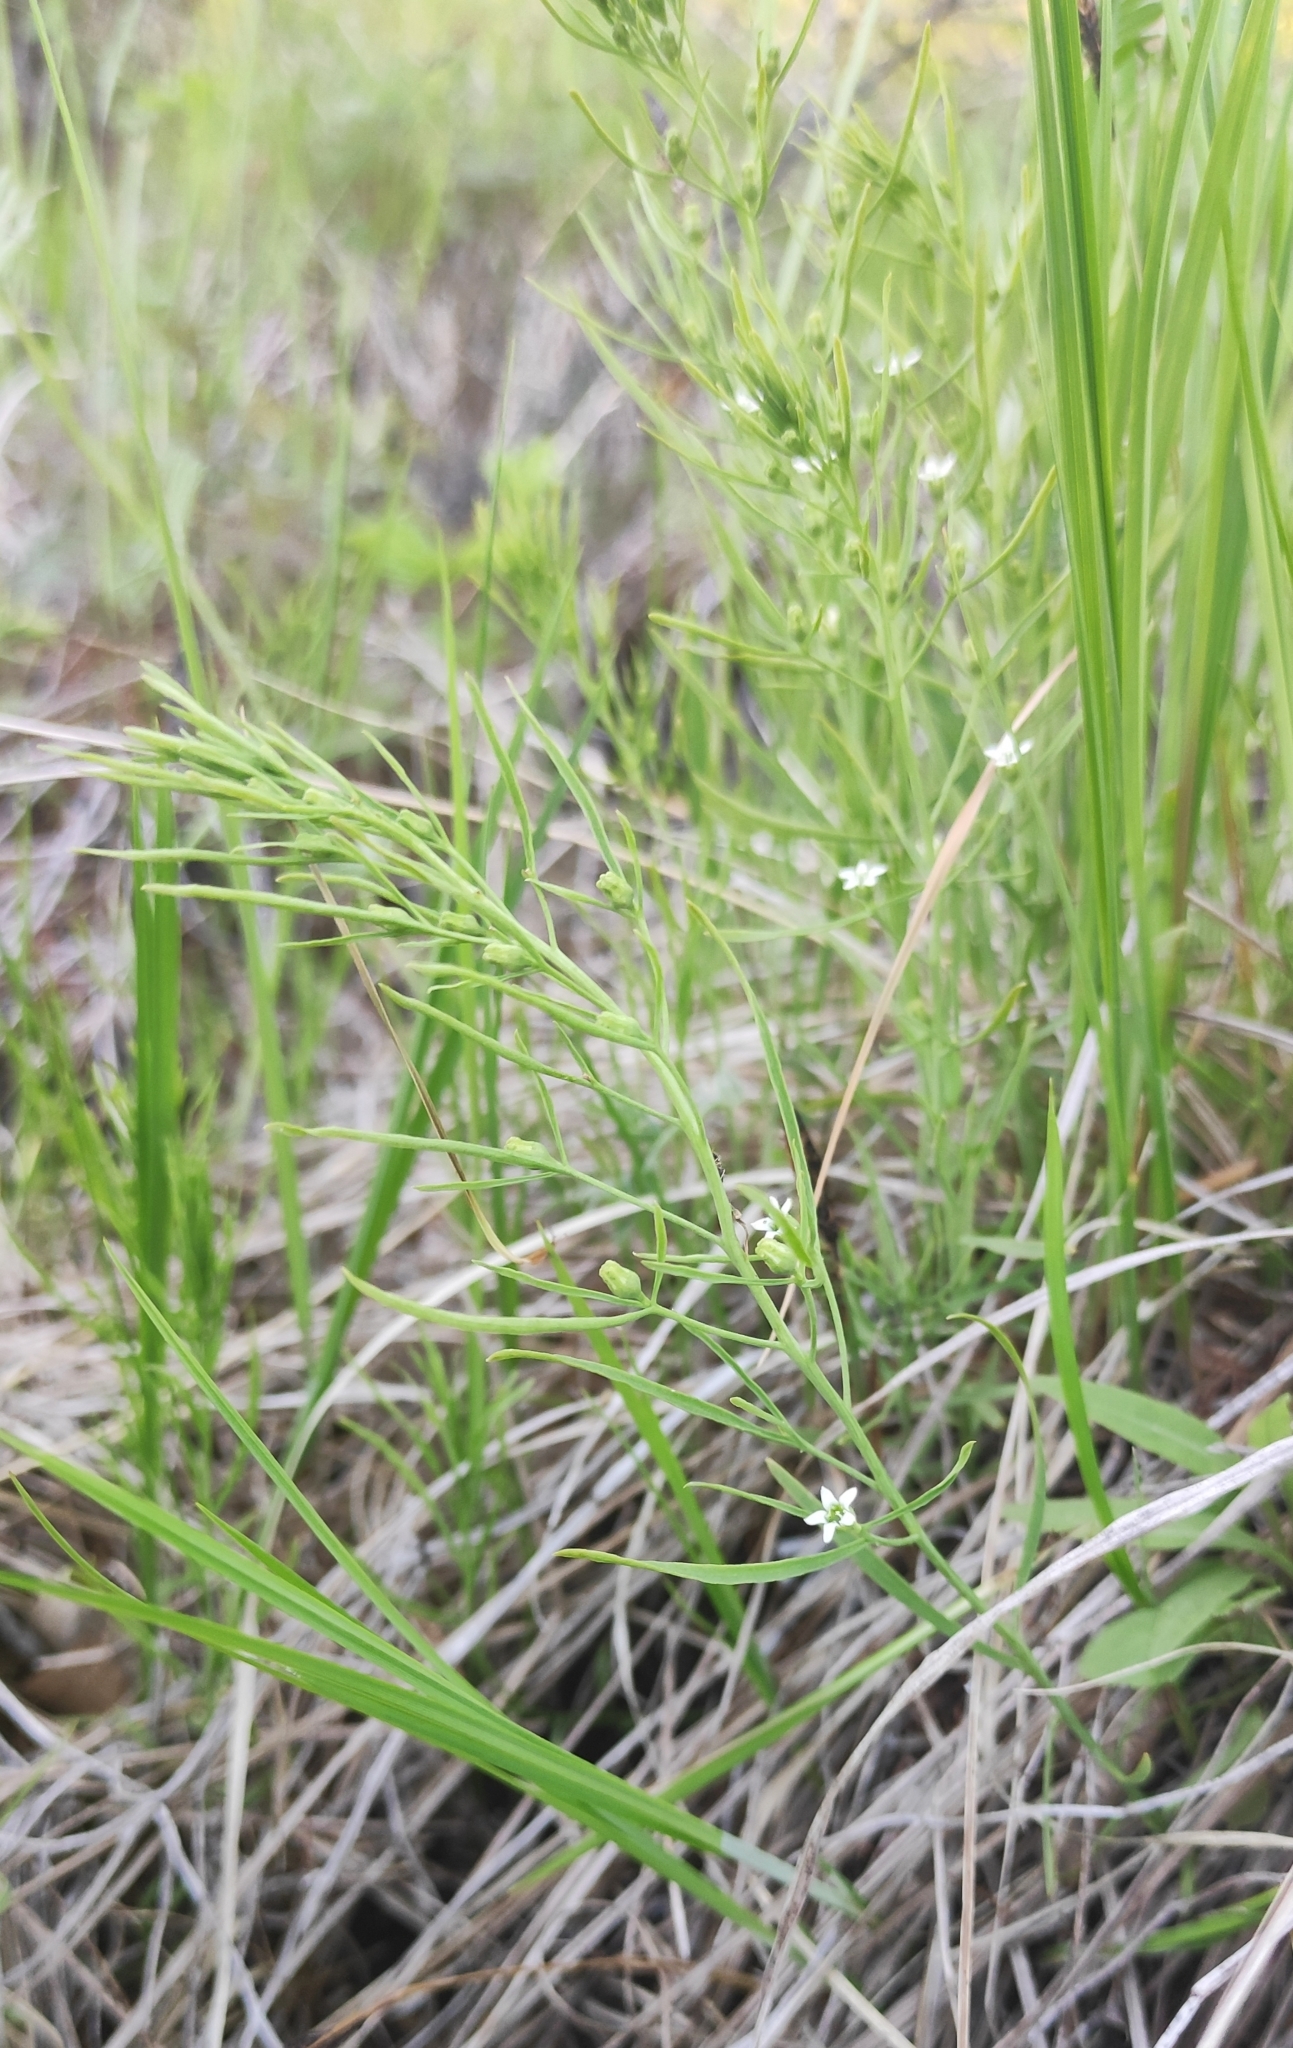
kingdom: Plantae
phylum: Tracheophyta
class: Magnoliopsida
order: Santalales
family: Thesiaceae
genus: Thesium
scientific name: Thesium repens
